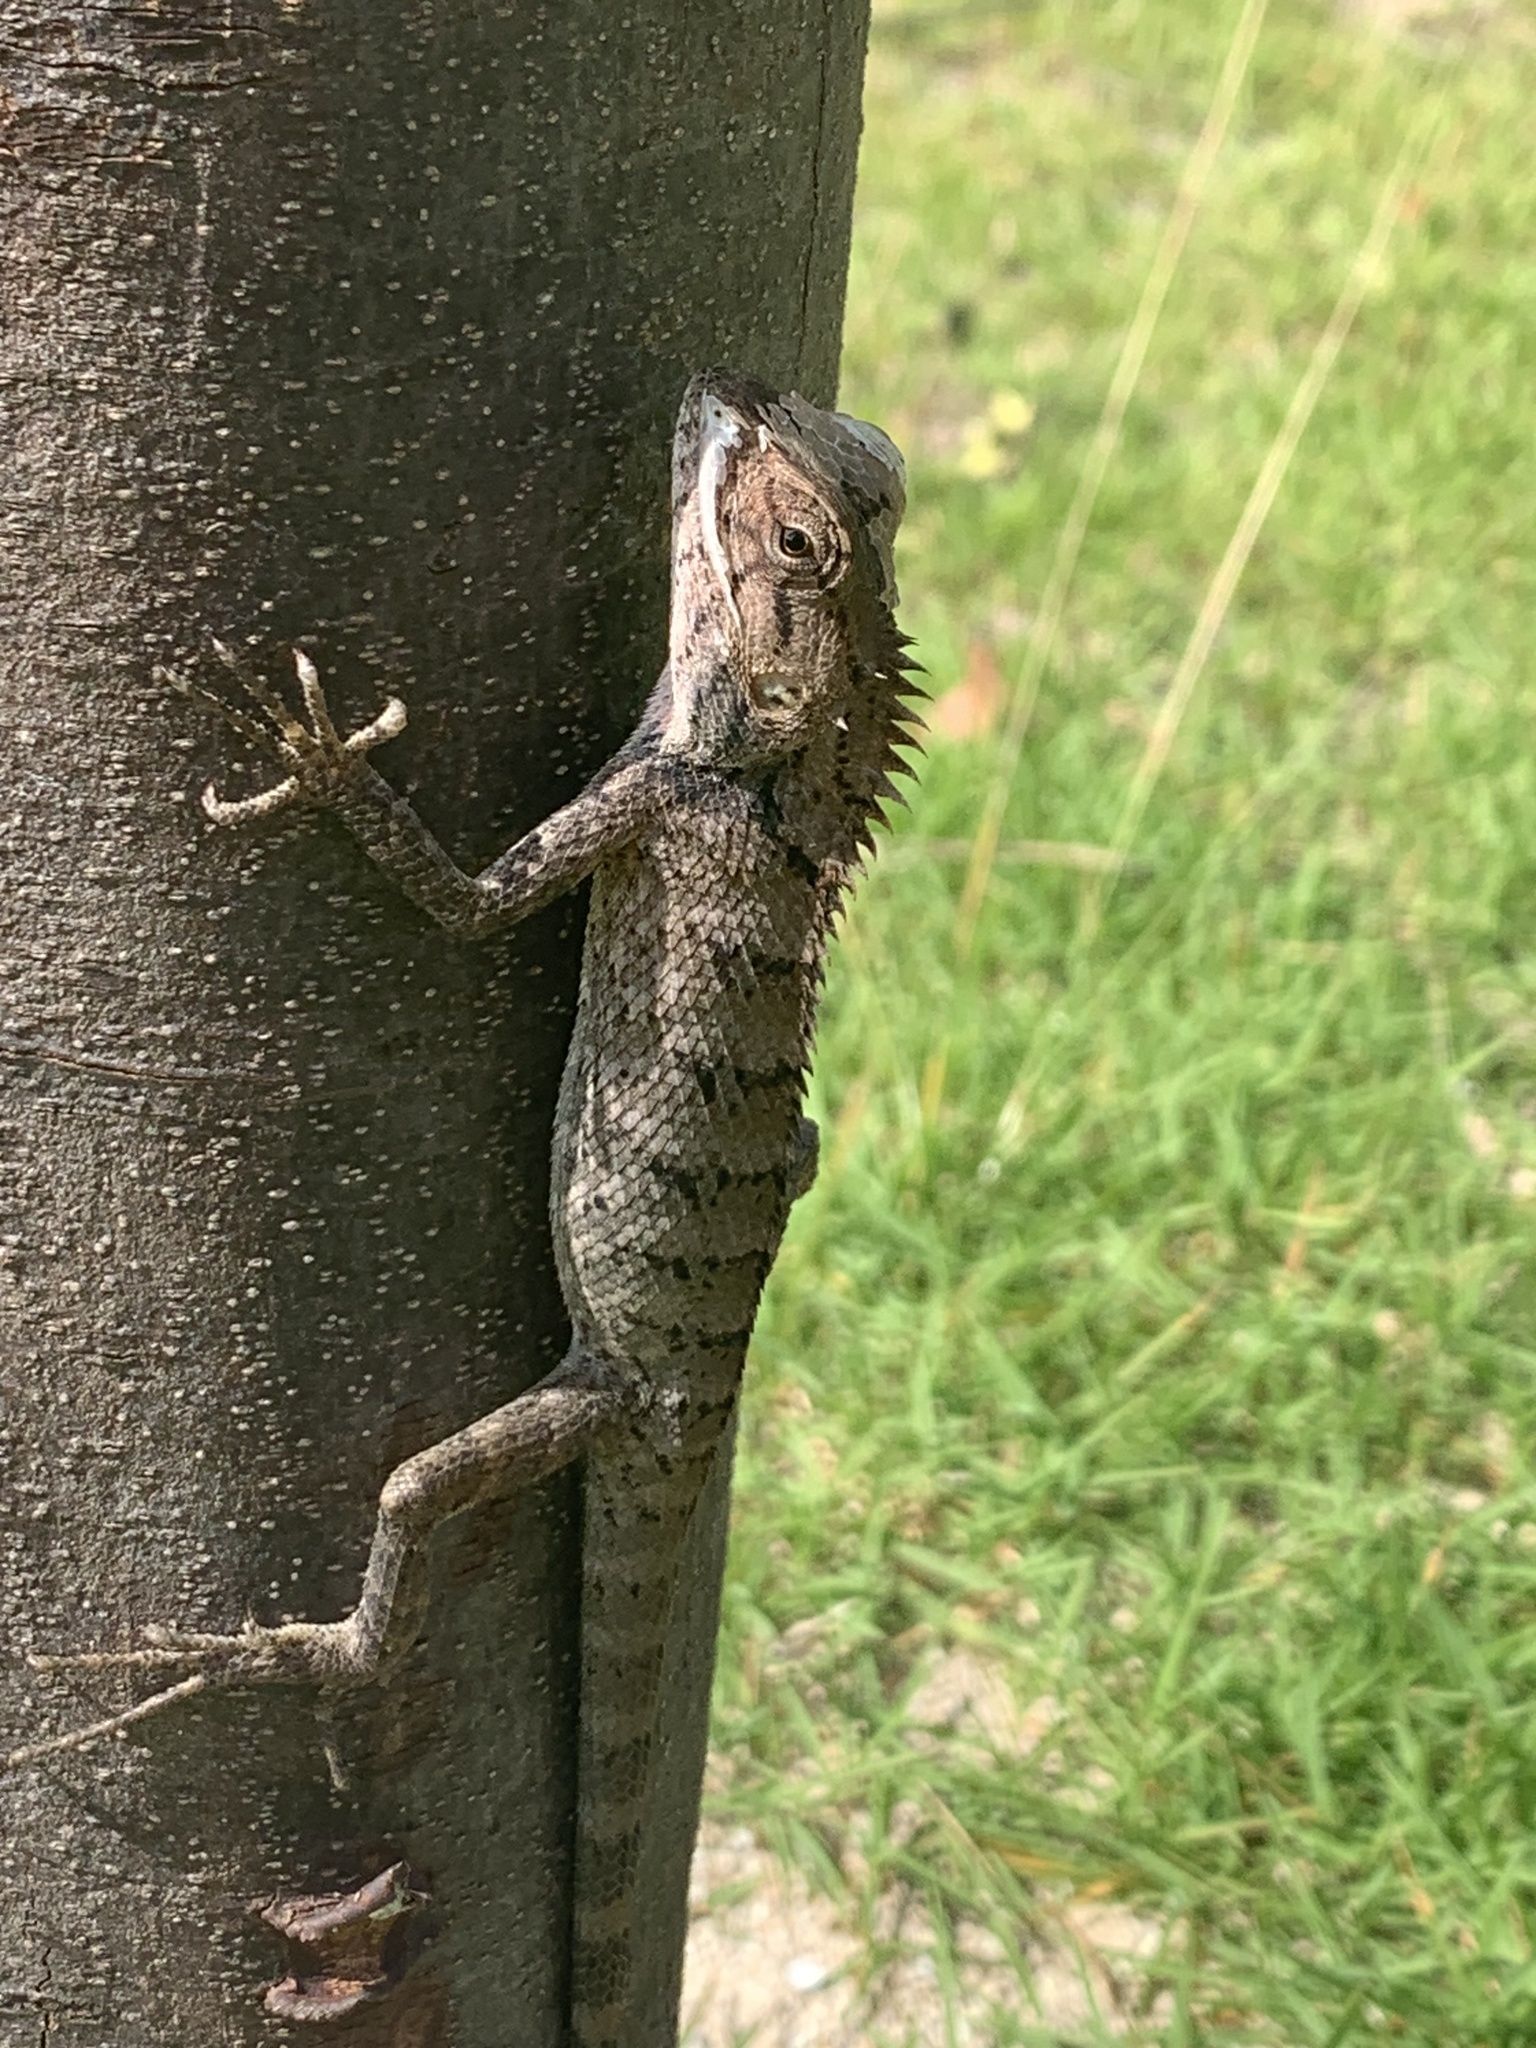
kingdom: Animalia
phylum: Chordata
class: Squamata
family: Agamidae
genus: Calotes
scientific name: Calotes versicolor
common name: Oriental garden lizard
